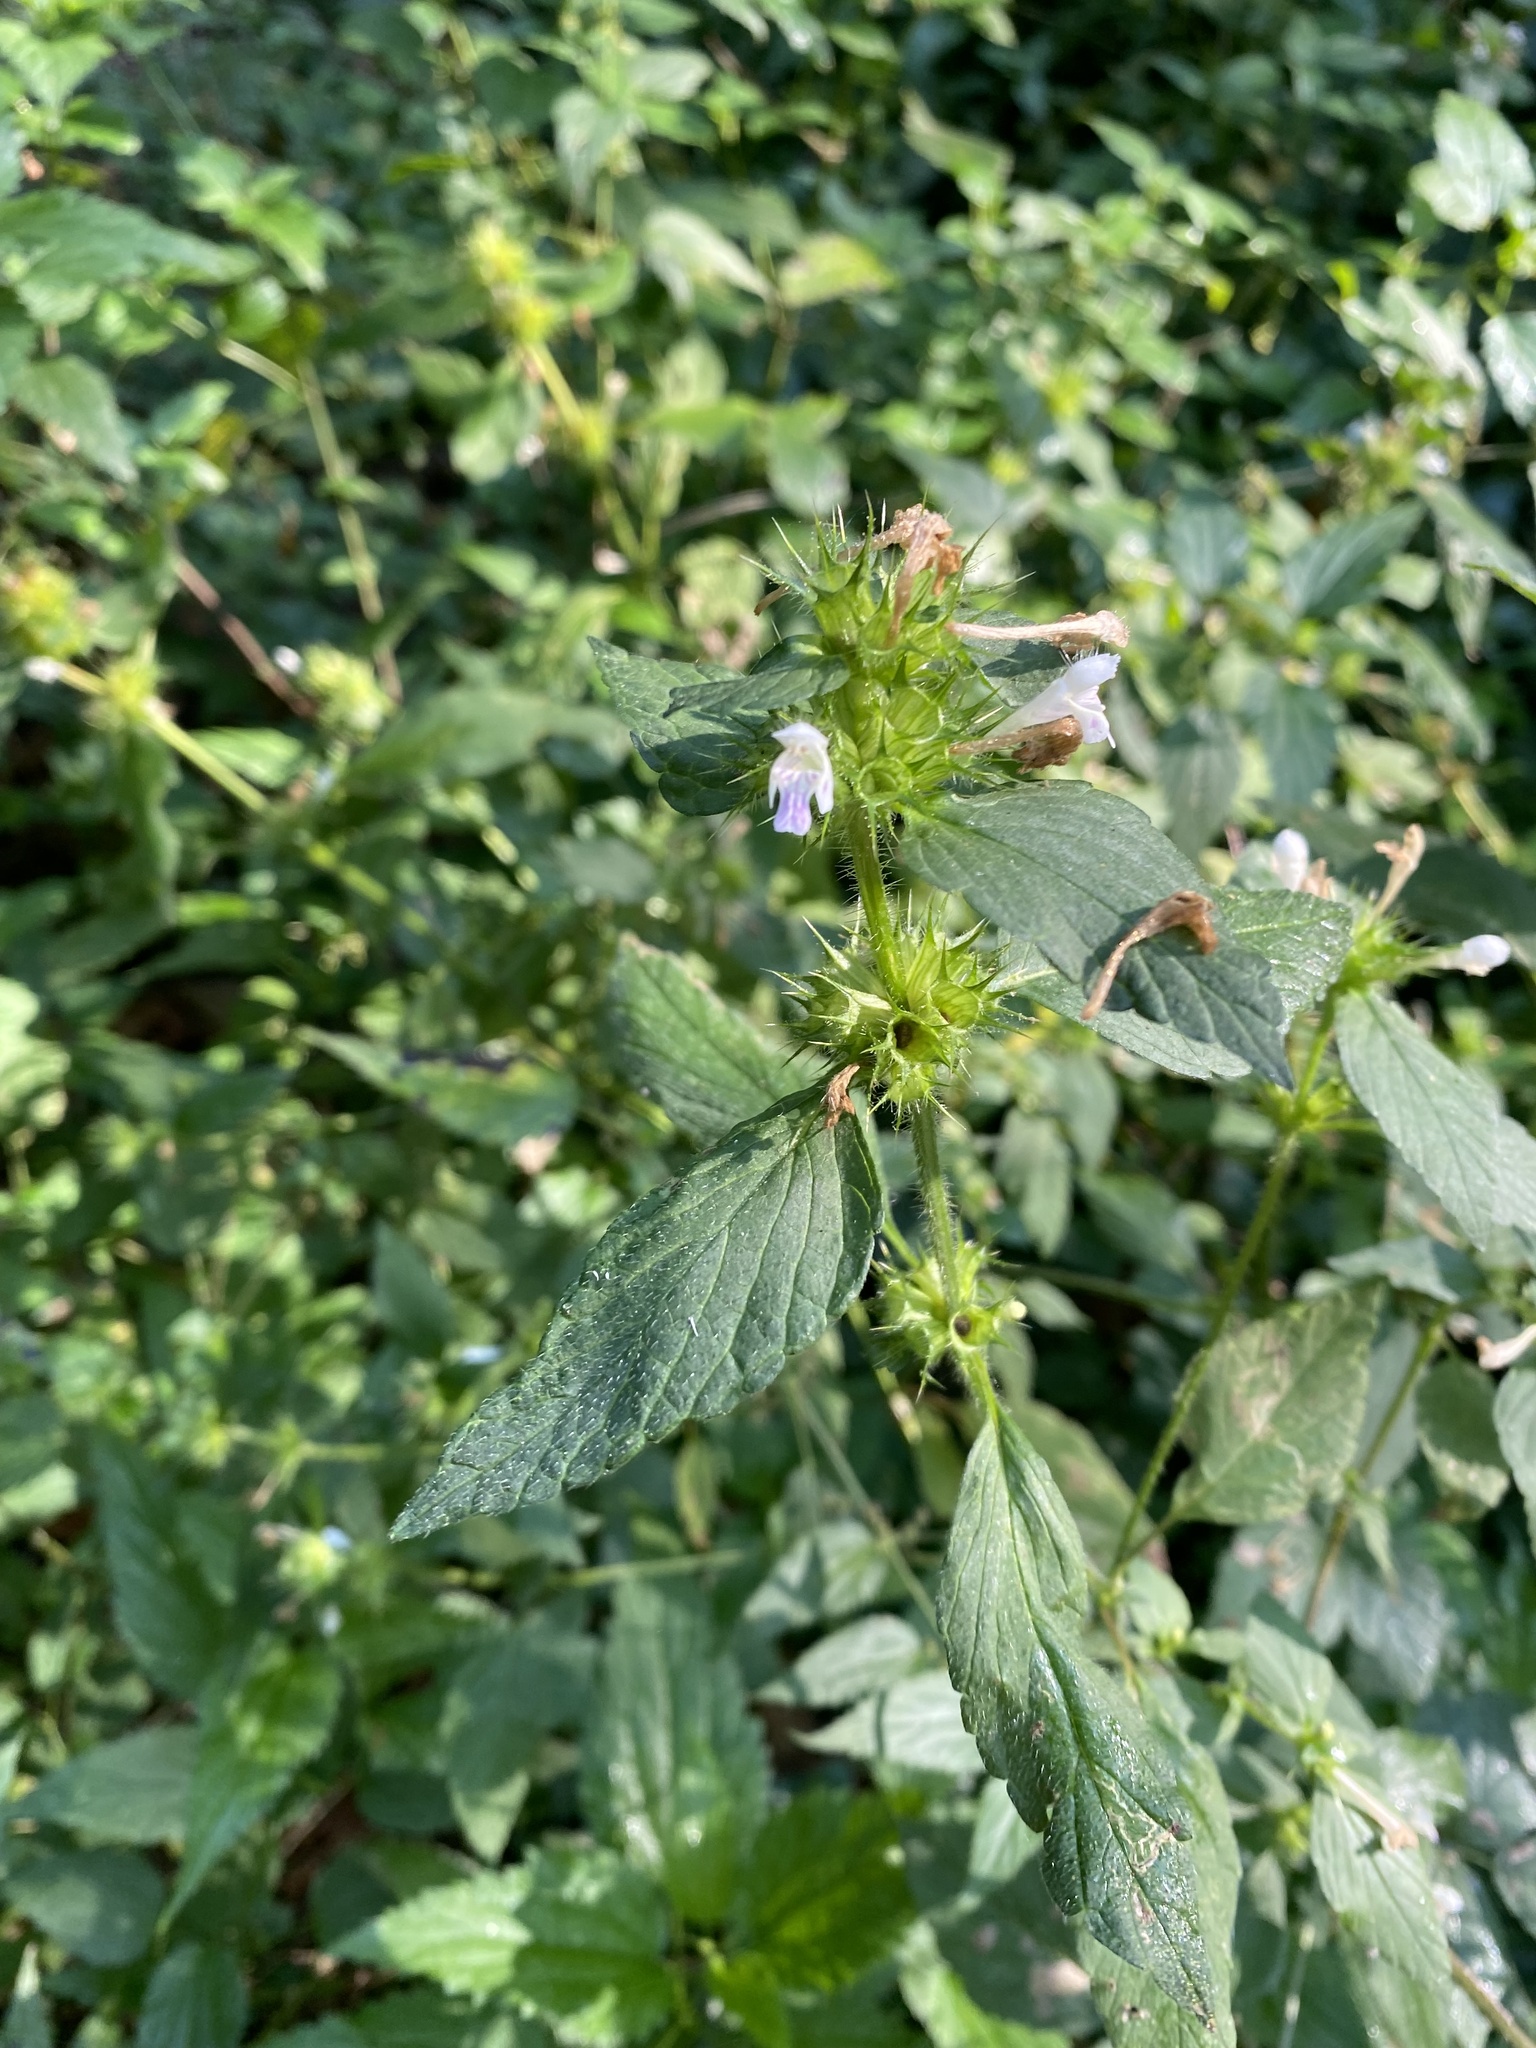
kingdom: Plantae
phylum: Tracheophyta
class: Magnoliopsida
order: Lamiales
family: Lamiaceae
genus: Galeopsis
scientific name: Galeopsis bifida
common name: Bifid hemp-nettle
